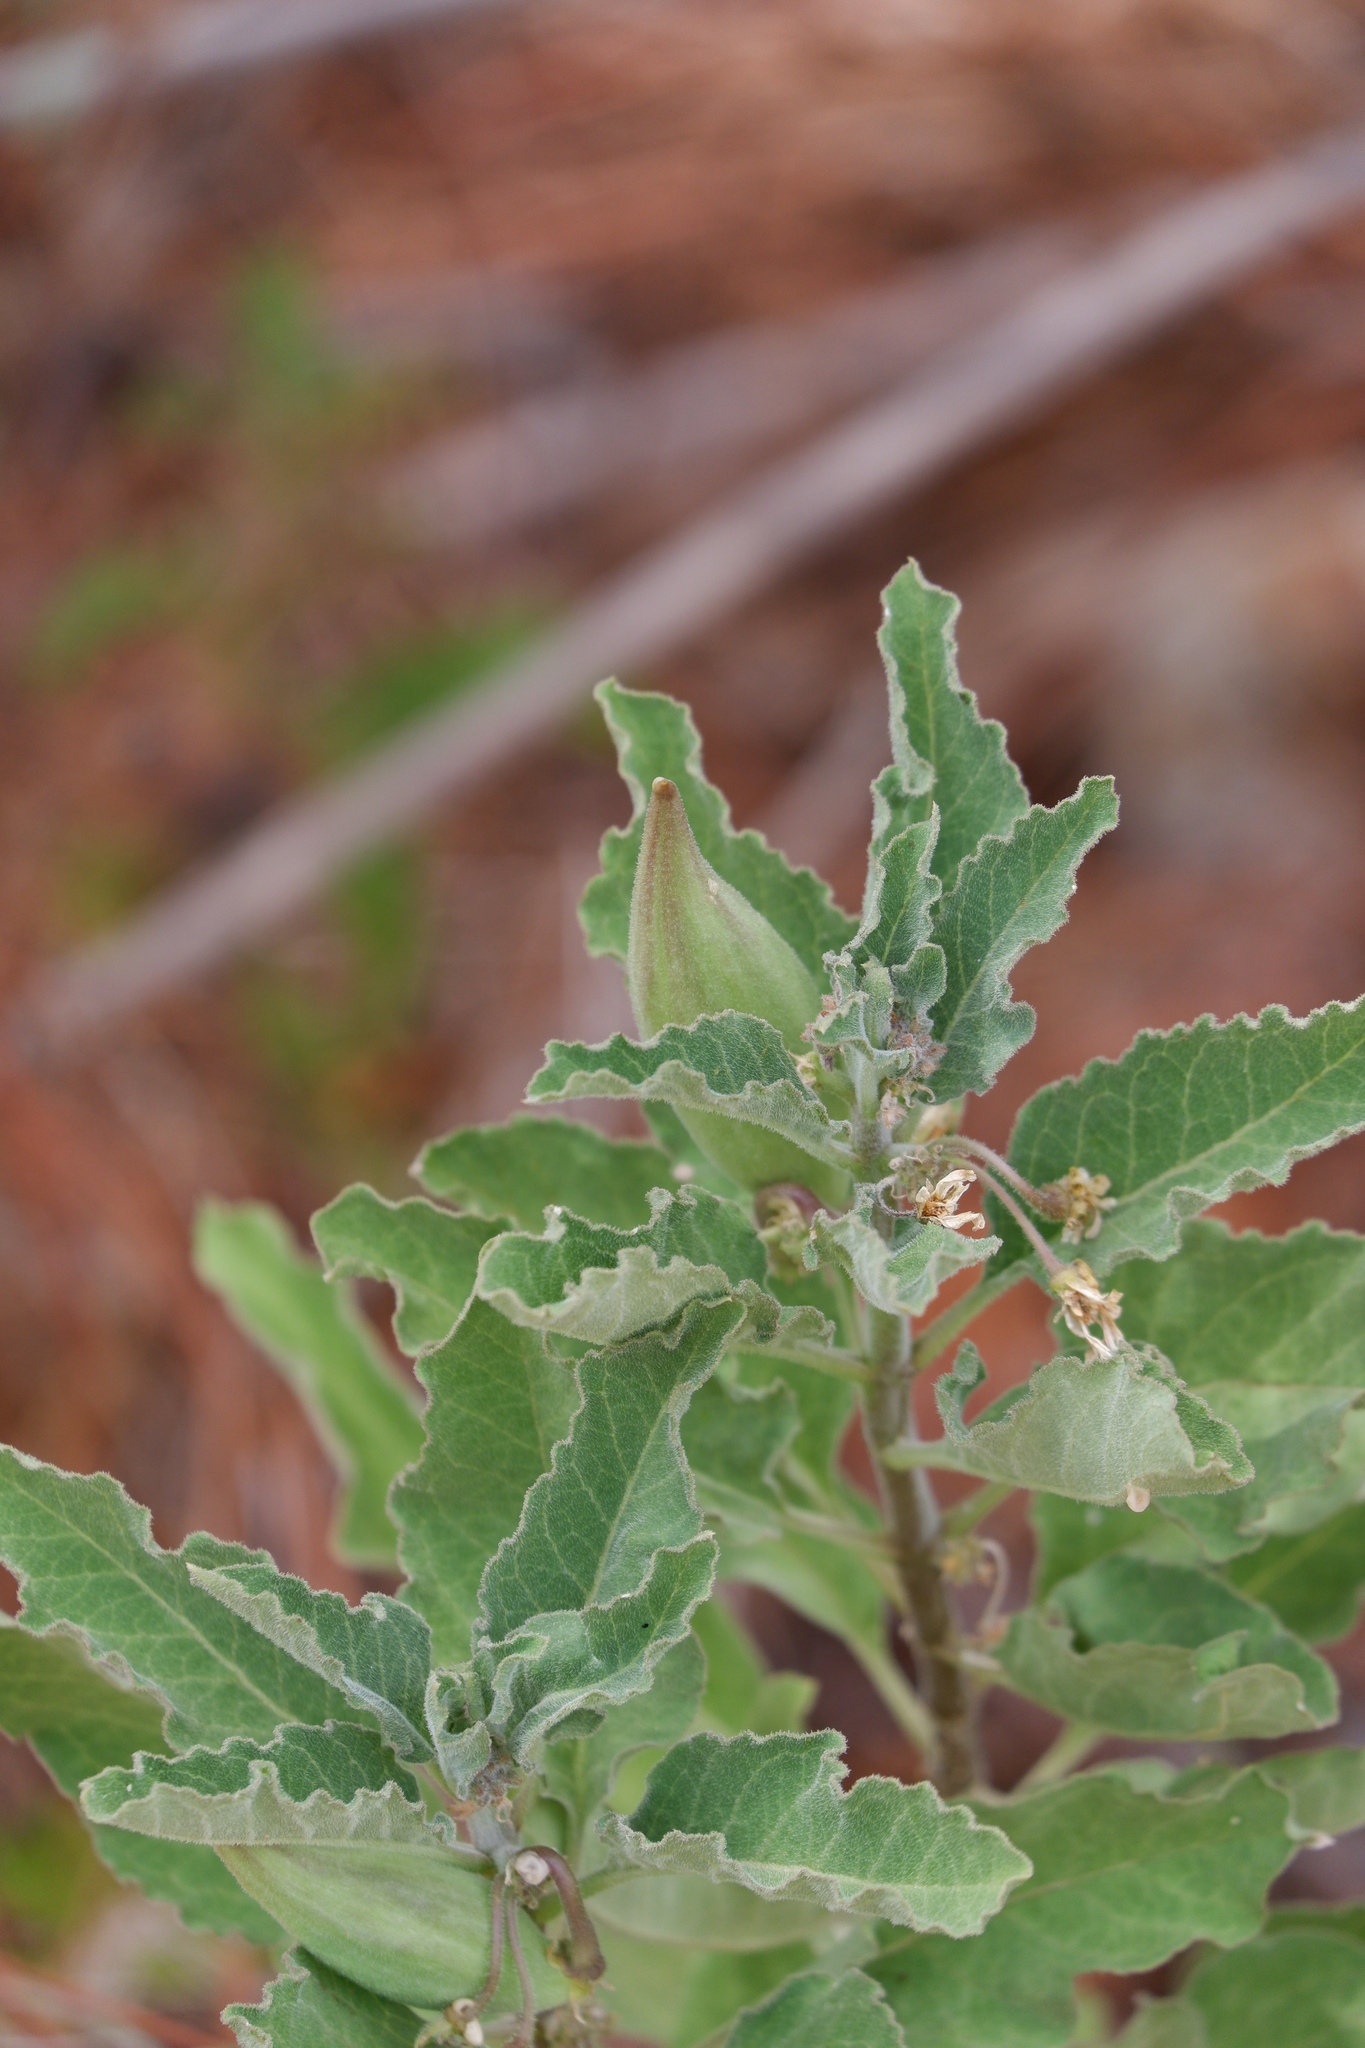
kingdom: Plantae
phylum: Tracheophyta
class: Magnoliopsida
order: Gentianales
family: Apocynaceae
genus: Asclepias
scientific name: Asclepias oenotheroides
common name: Zizotes milkweed
